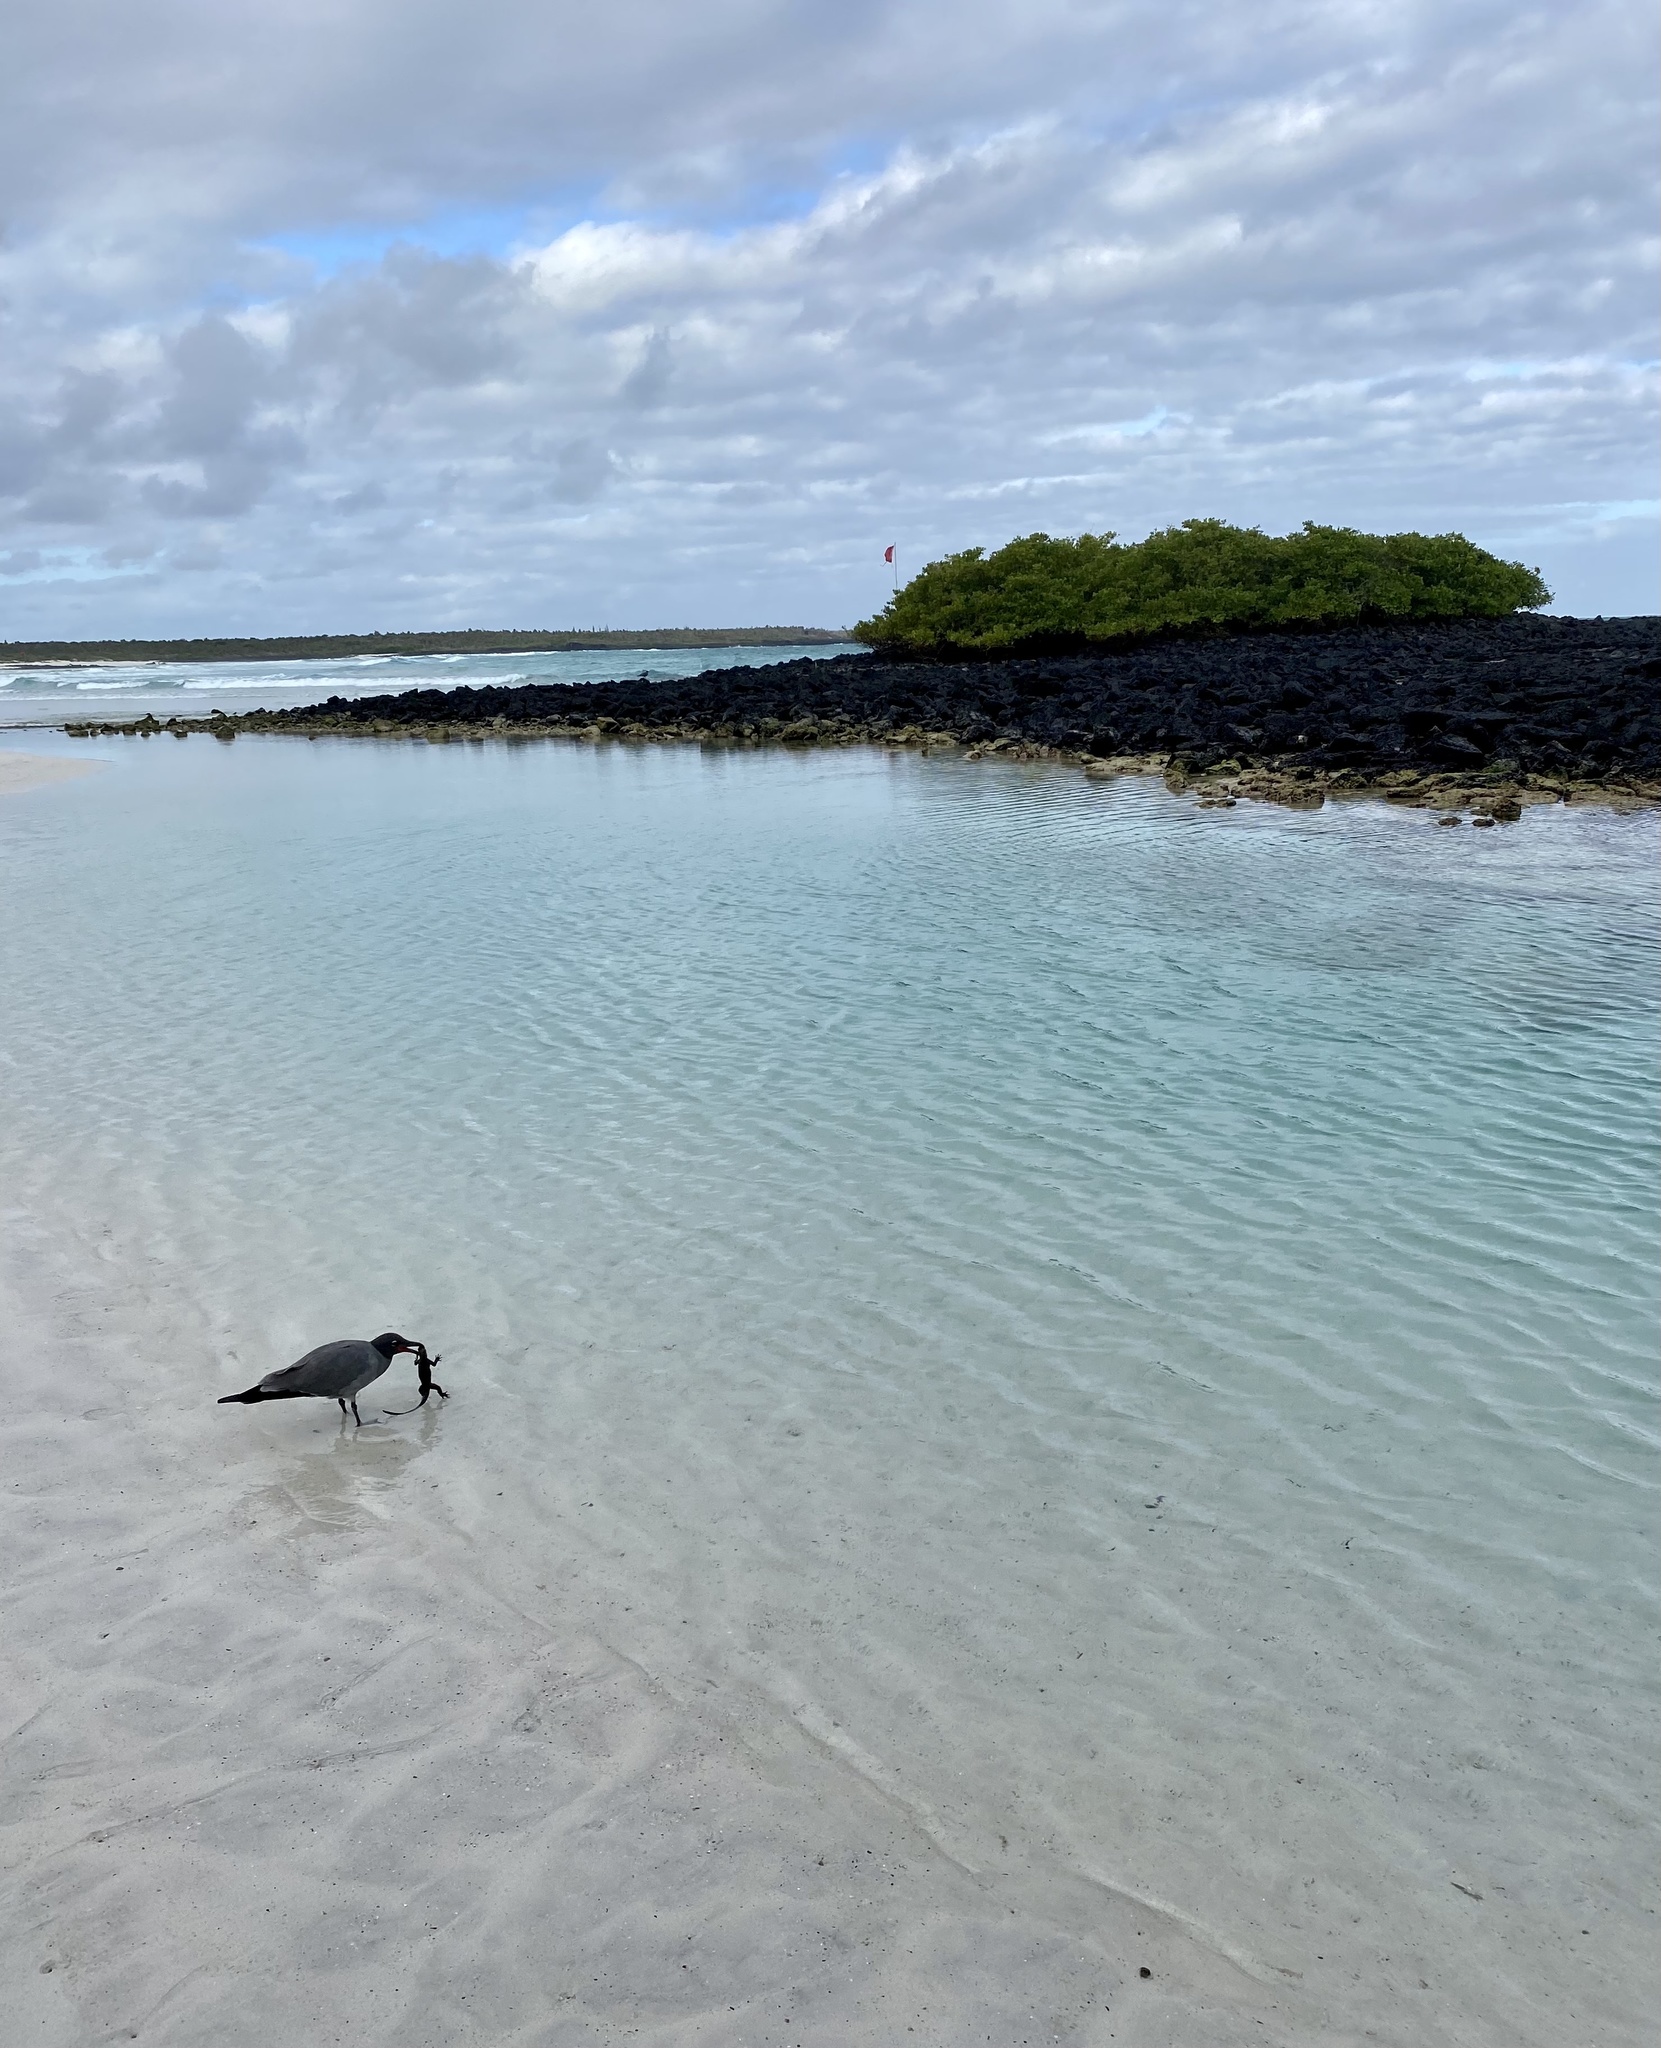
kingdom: Animalia
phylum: Chordata
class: Aves
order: Charadriiformes
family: Laridae
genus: Leucophaeus
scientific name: Leucophaeus fuliginosus
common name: Lava gull
